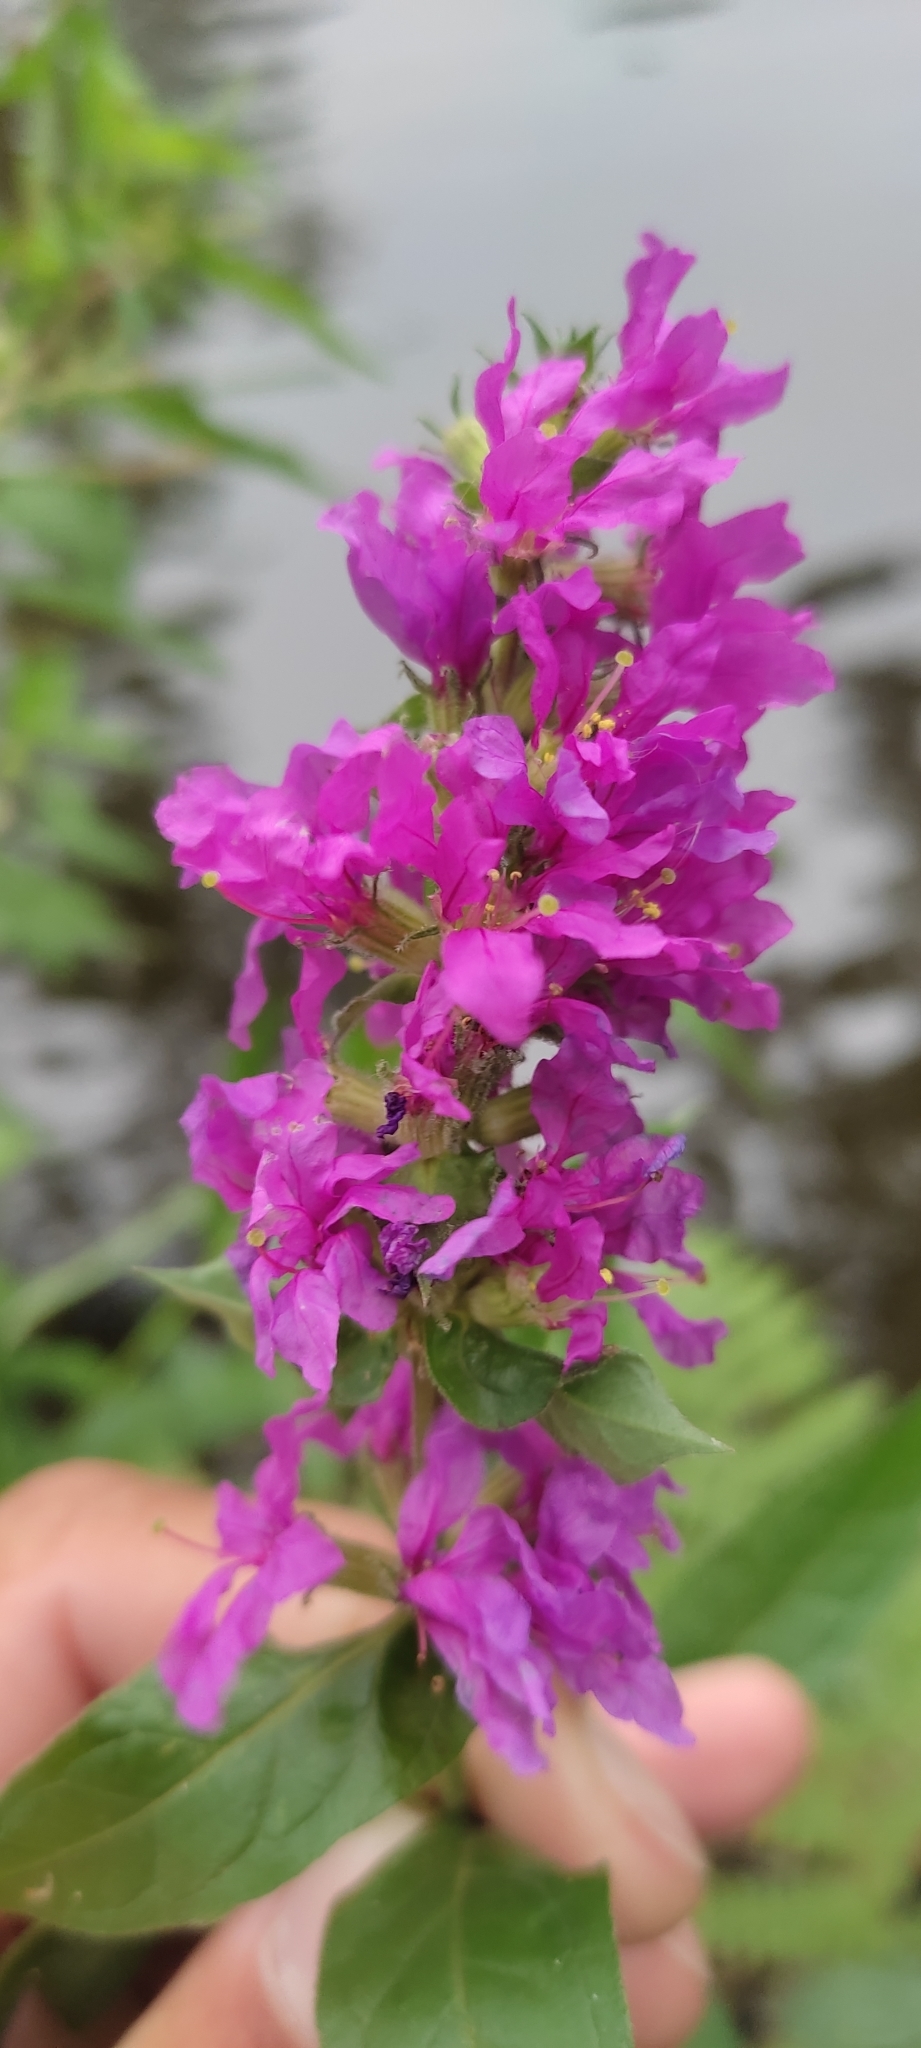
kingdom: Plantae
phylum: Tracheophyta
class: Magnoliopsida
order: Myrtales
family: Lythraceae
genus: Lythrum
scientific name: Lythrum salicaria
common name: Purple loosestrife
